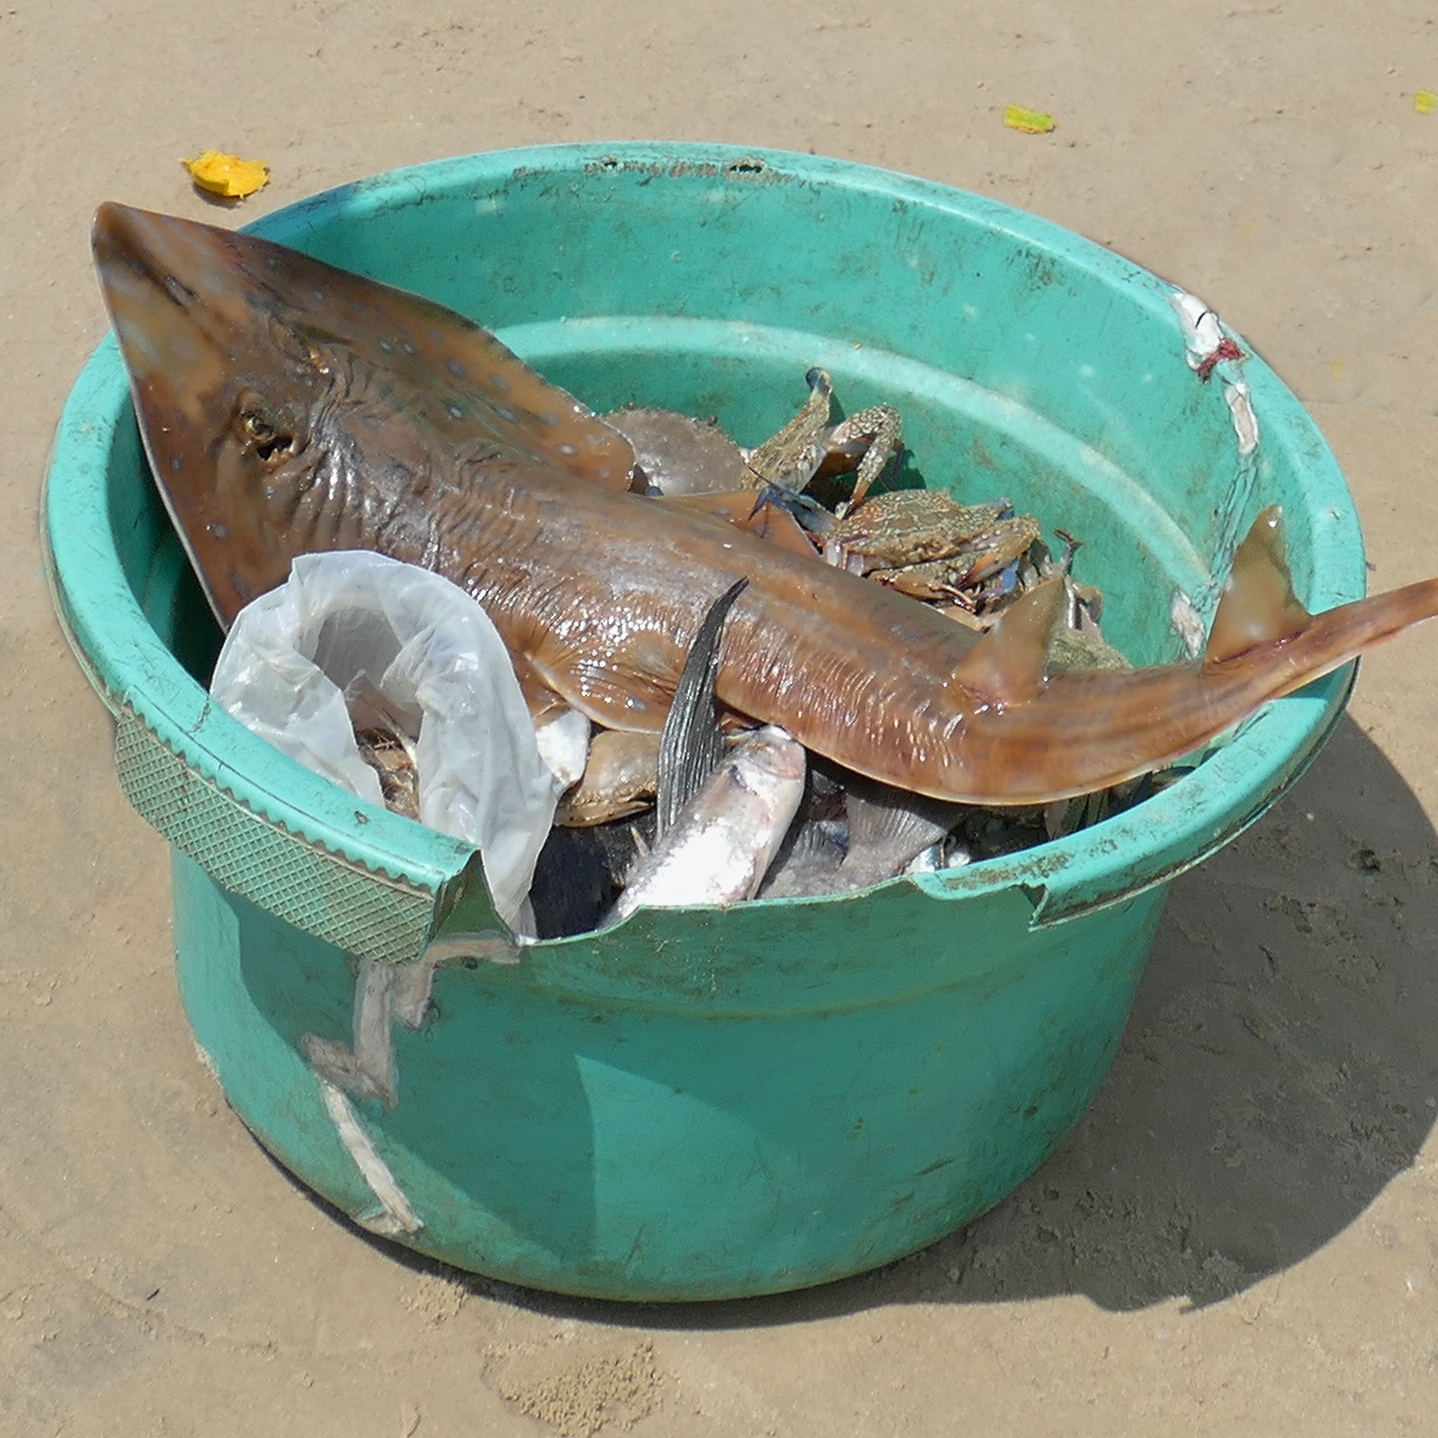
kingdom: Animalia
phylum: Chordata
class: Elasmobranchii
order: Rhinopristiformes
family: Rhinobatidae
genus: Acroteriobatus
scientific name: Acroteriobatus andysabini
